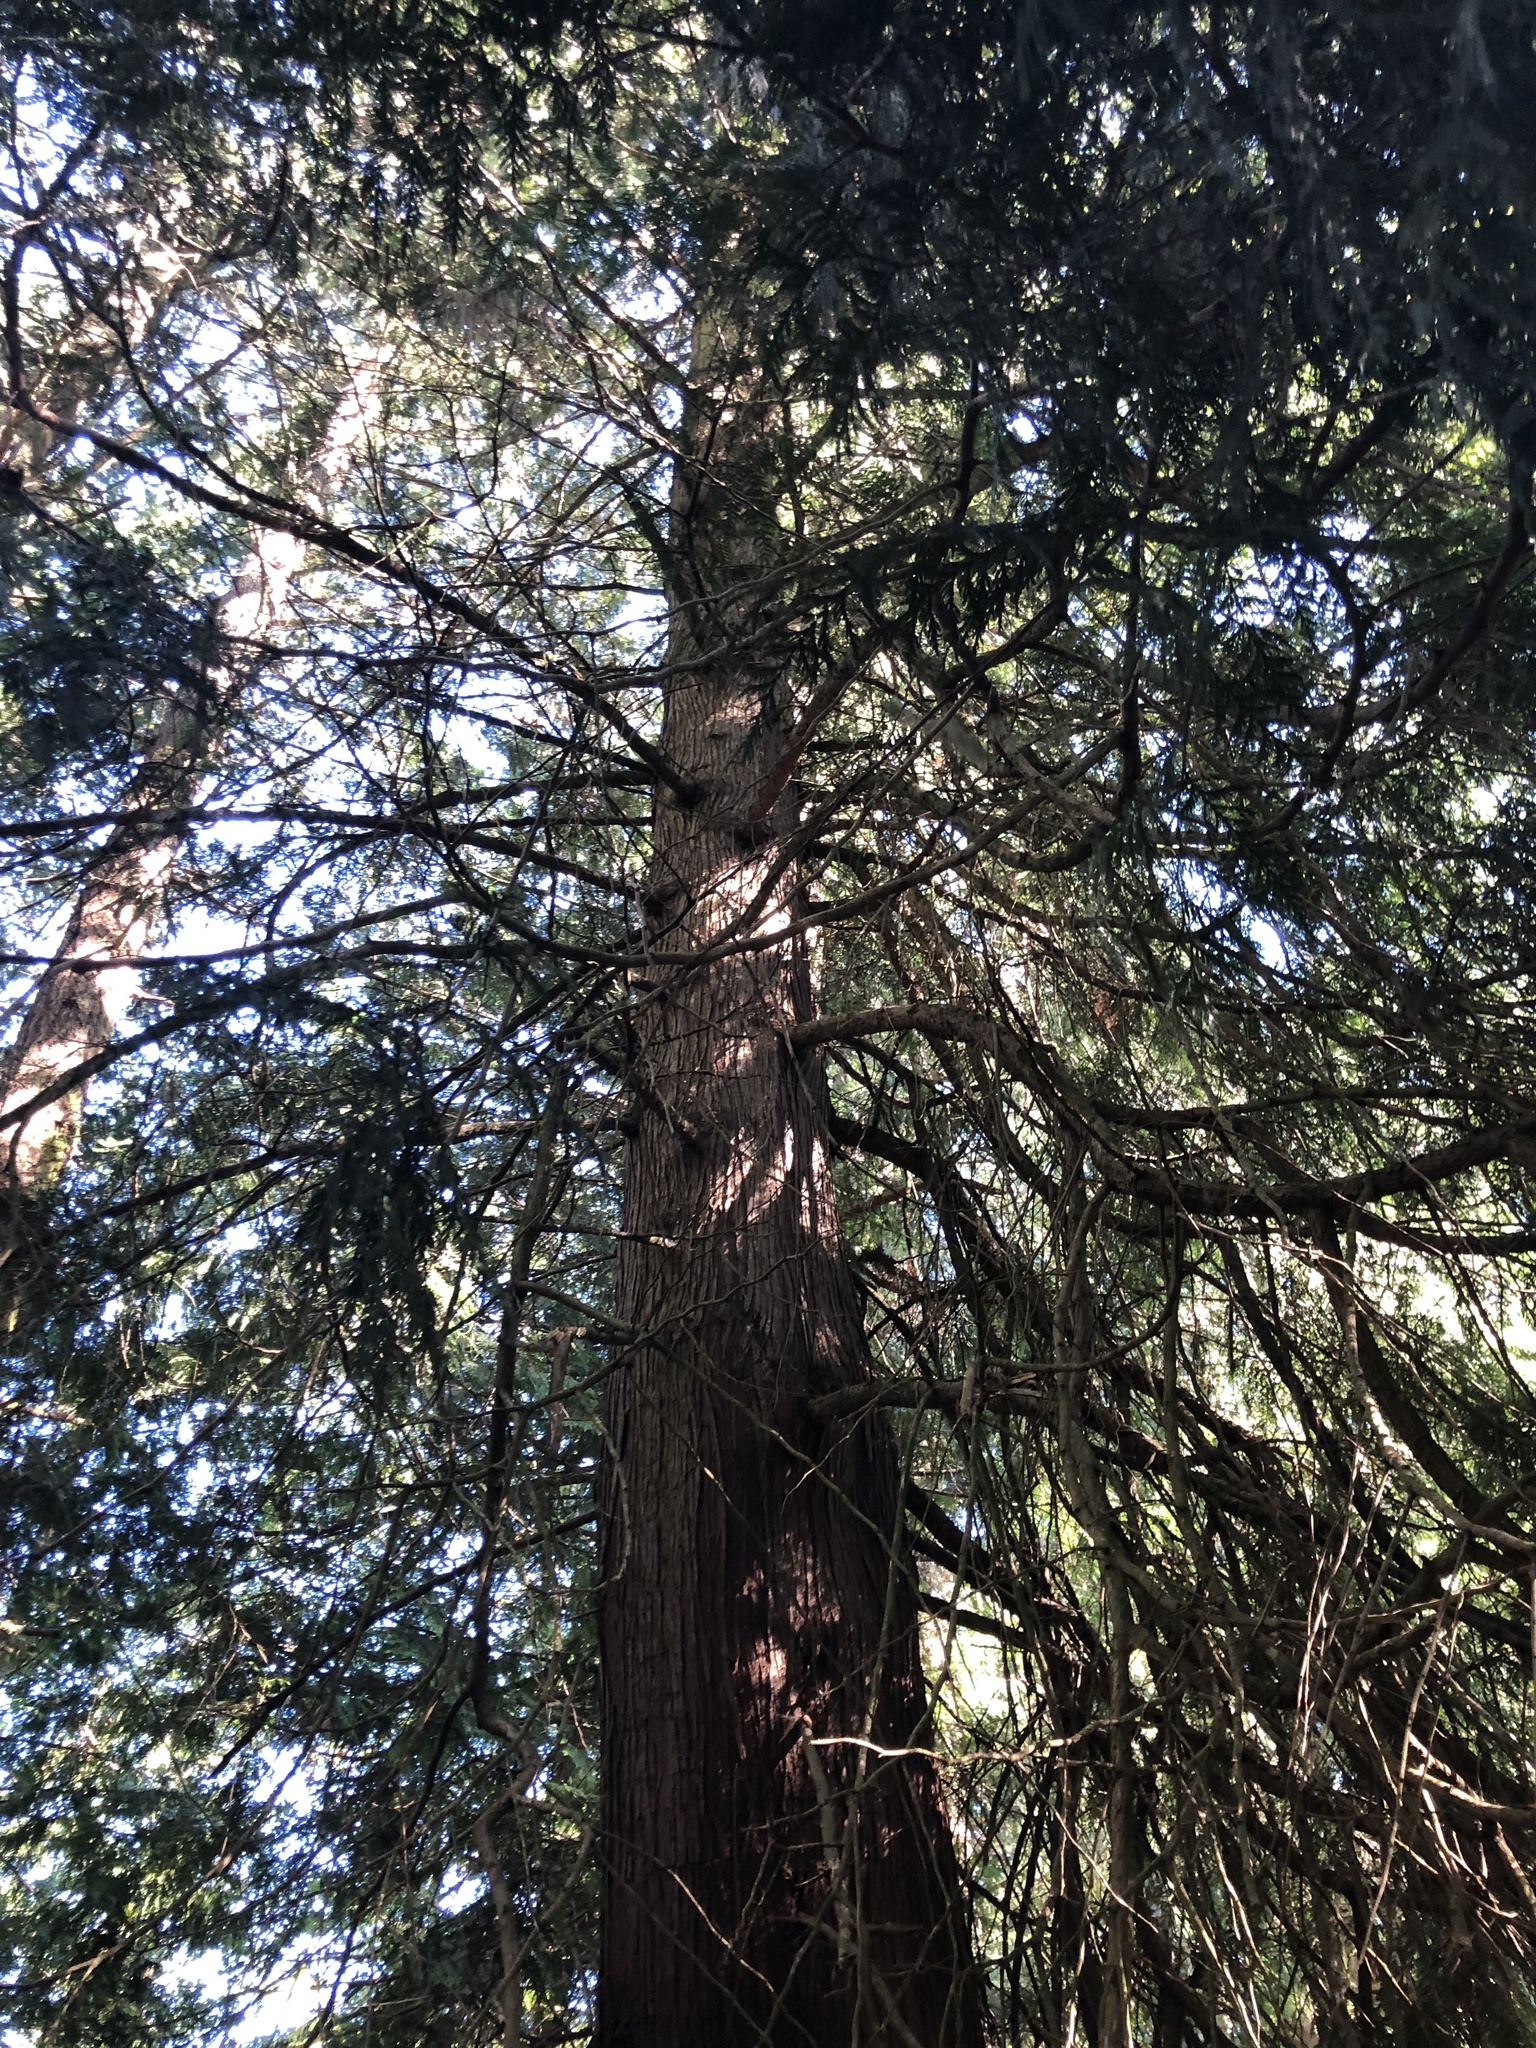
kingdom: Plantae
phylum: Tracheophyta
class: Pinopsida
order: Pinales
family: Cupressaceae
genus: Thuja
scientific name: Thuja plicata
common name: Western red-cedar
